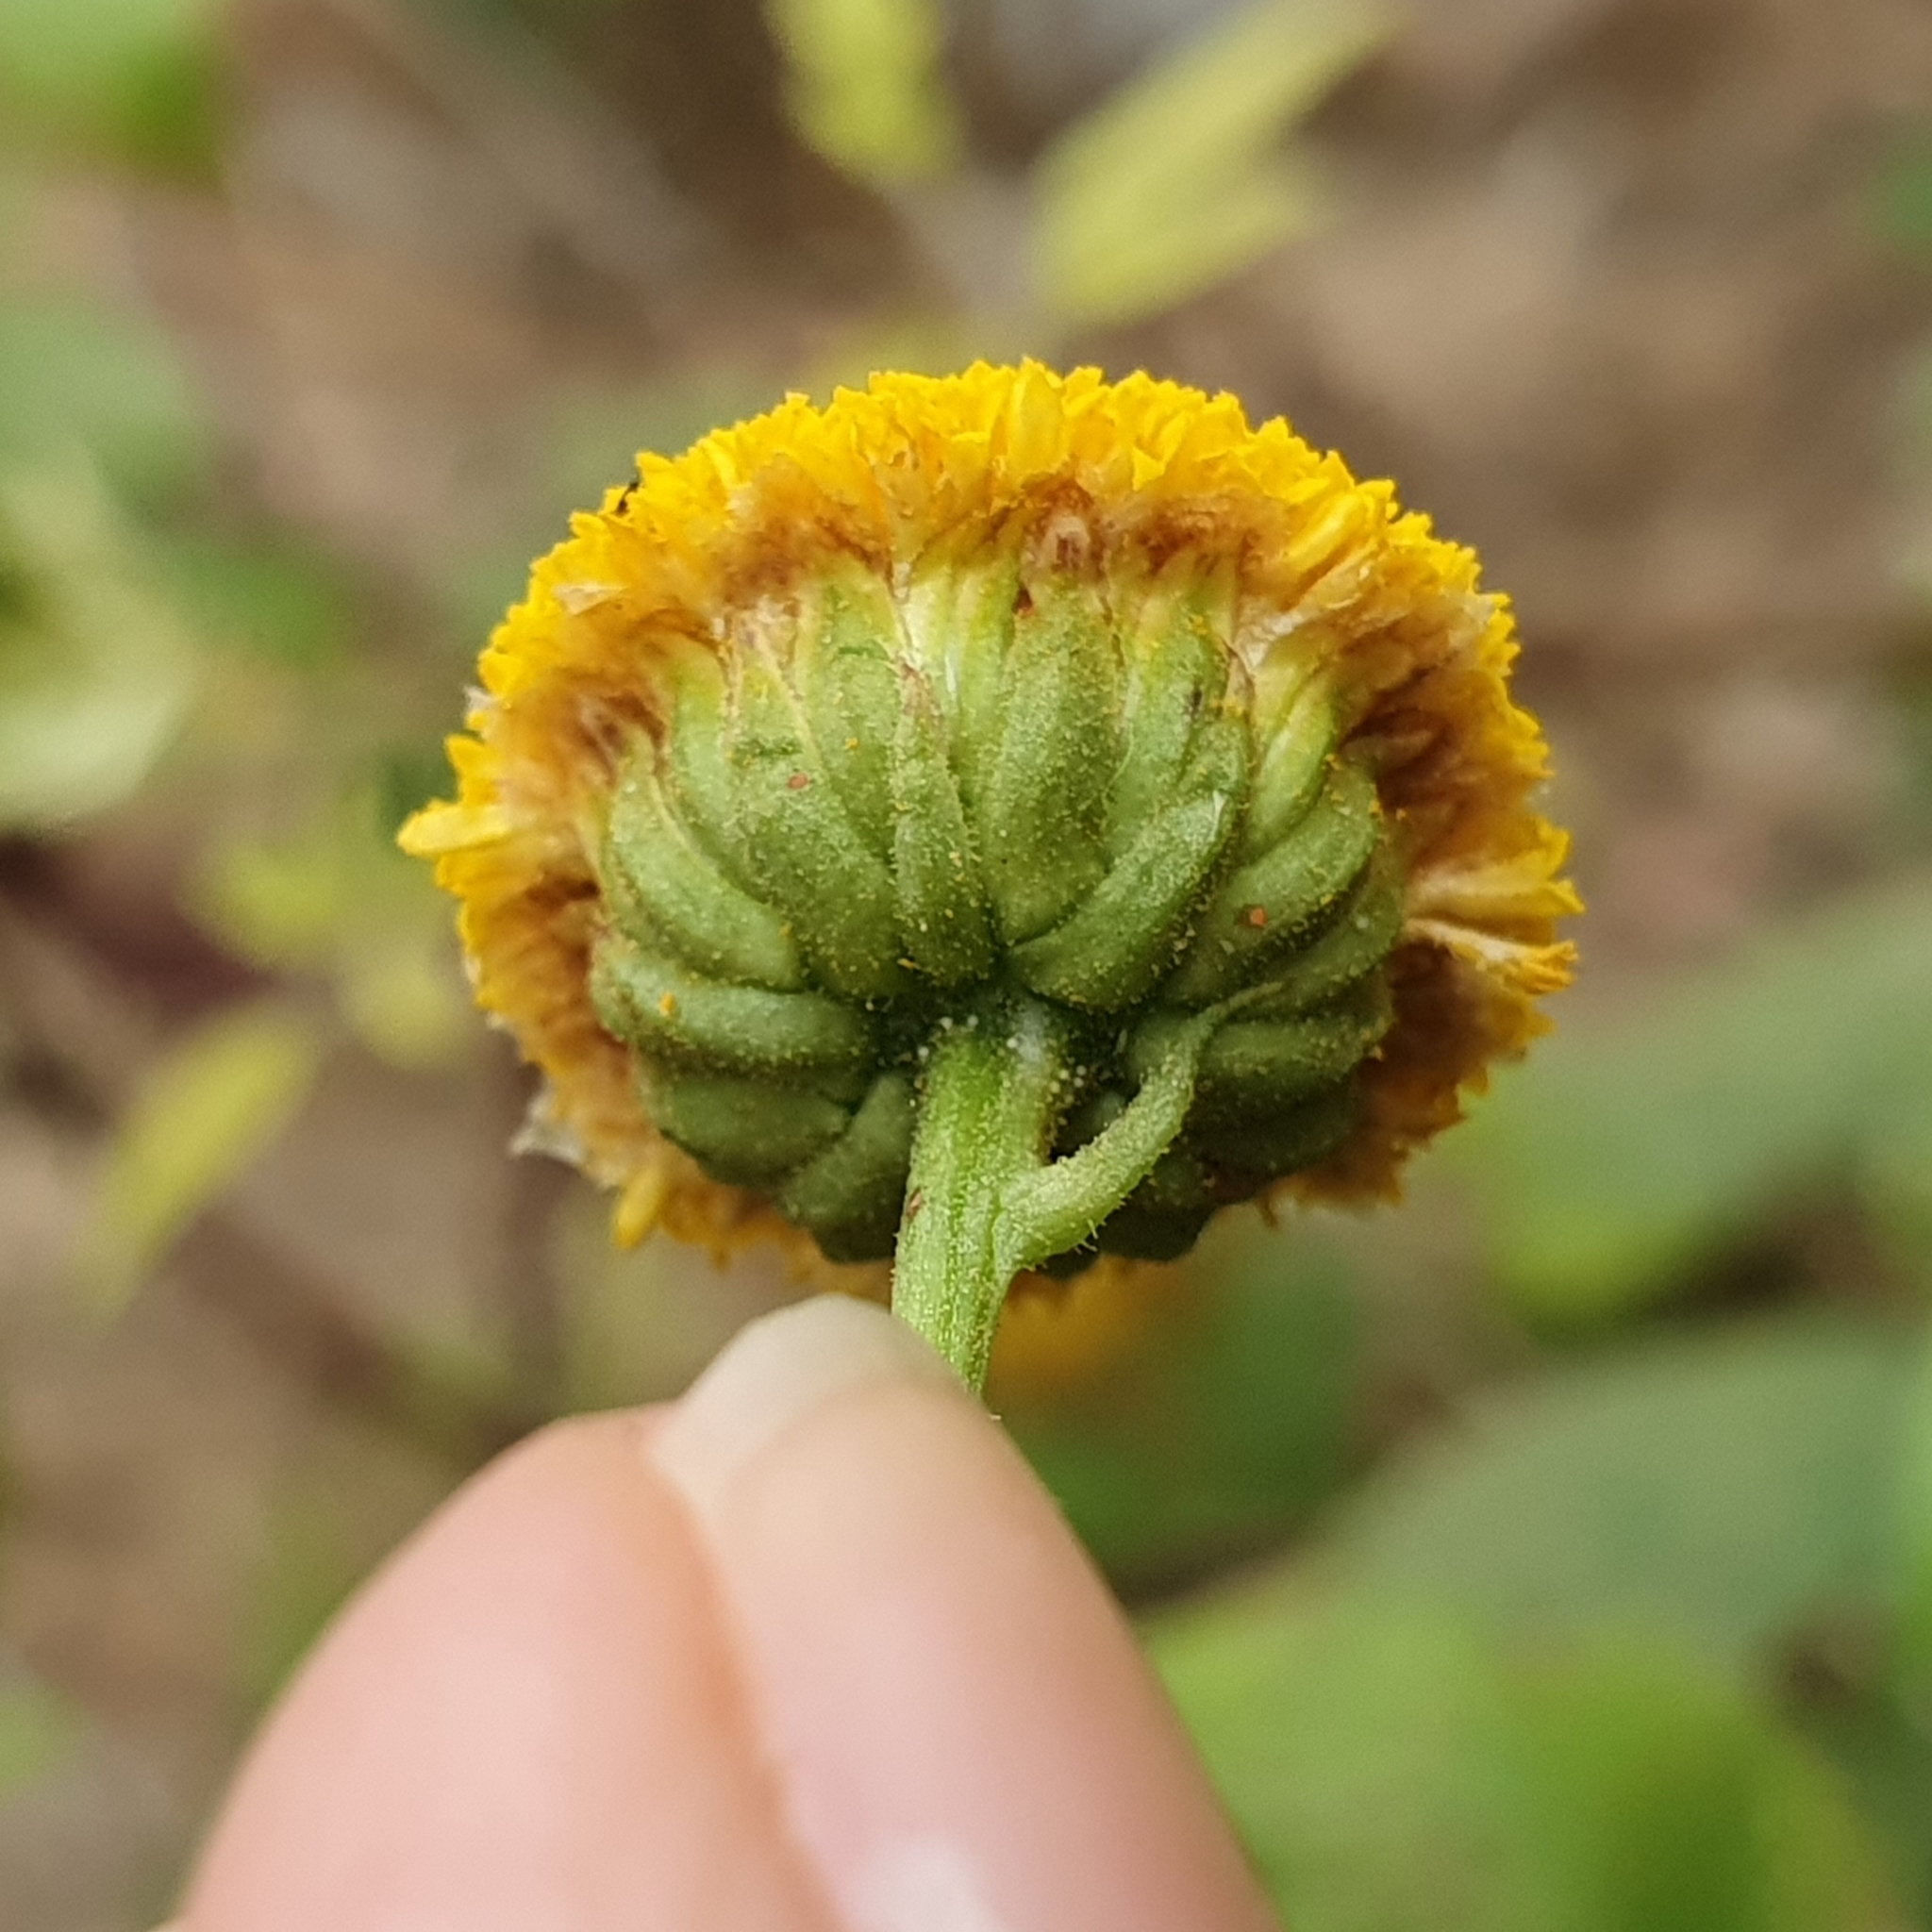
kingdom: Plantae
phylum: Tracheophyta
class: Magnoliopsida
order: Asterales
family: Asteraceae
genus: Plagius
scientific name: Plagius maghrebinus
